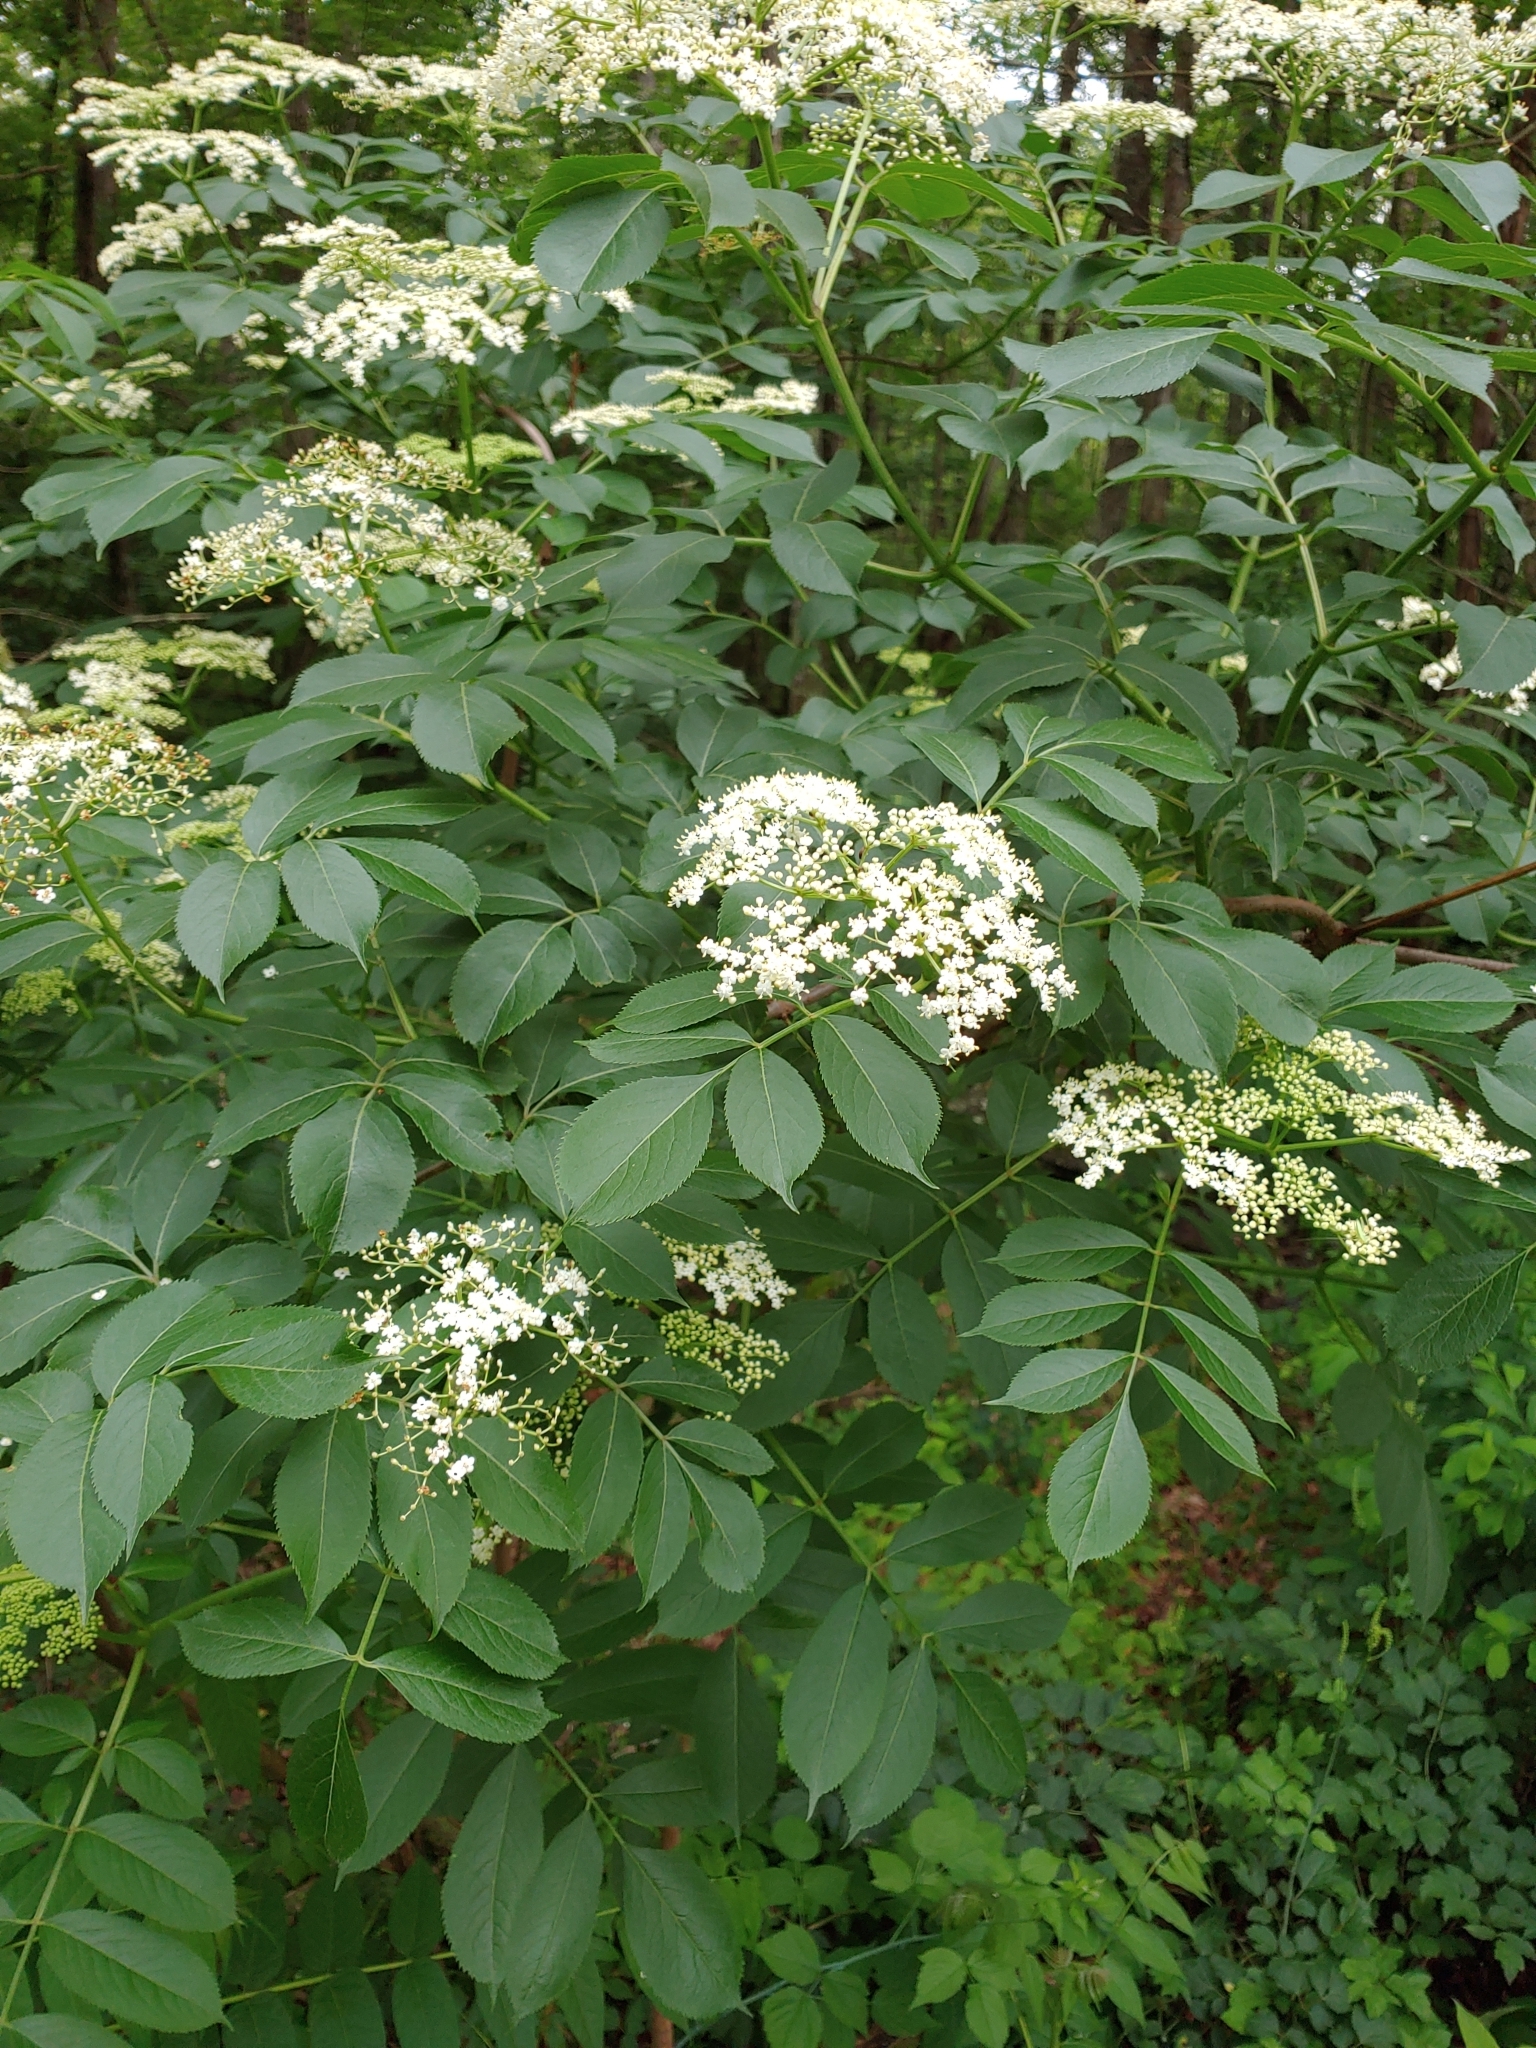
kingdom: Plantae
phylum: Tracheophyta
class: Magnoliopsida
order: Dipsacales
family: Viburnaceae
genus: Sambucus
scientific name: Sambucus canadensis
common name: American elder
